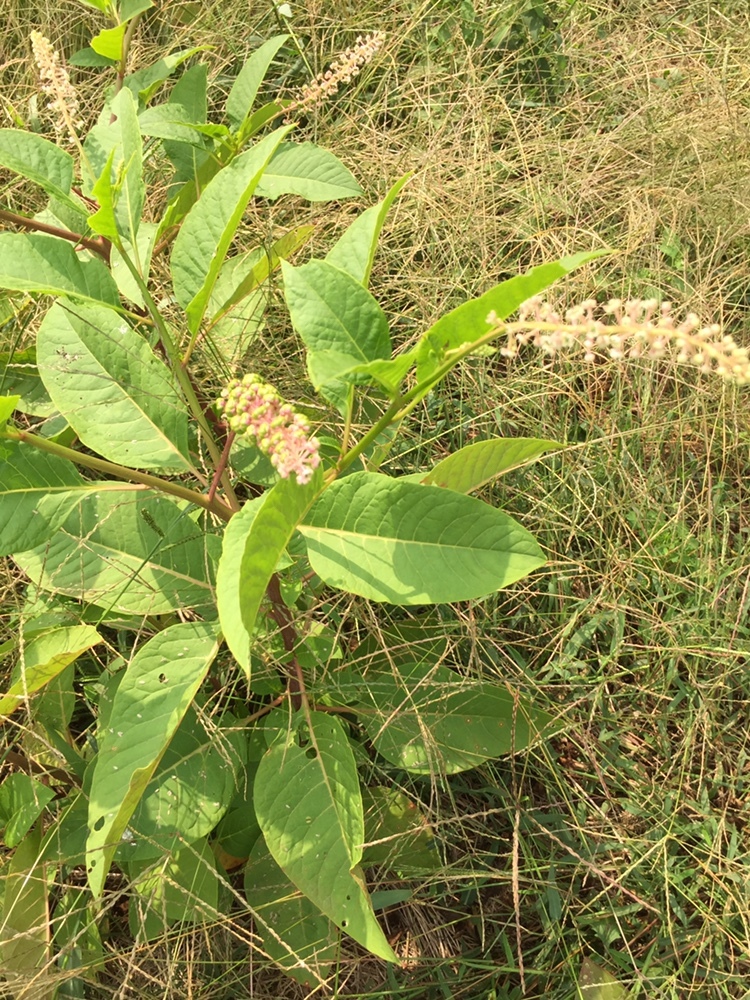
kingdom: Plantae
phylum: Tracheophyta
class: Magnoliopsida
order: Caryophyllales
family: Phytolaccaceae
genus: Phytolacca
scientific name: Phytolacca americana
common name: American pokeweed
